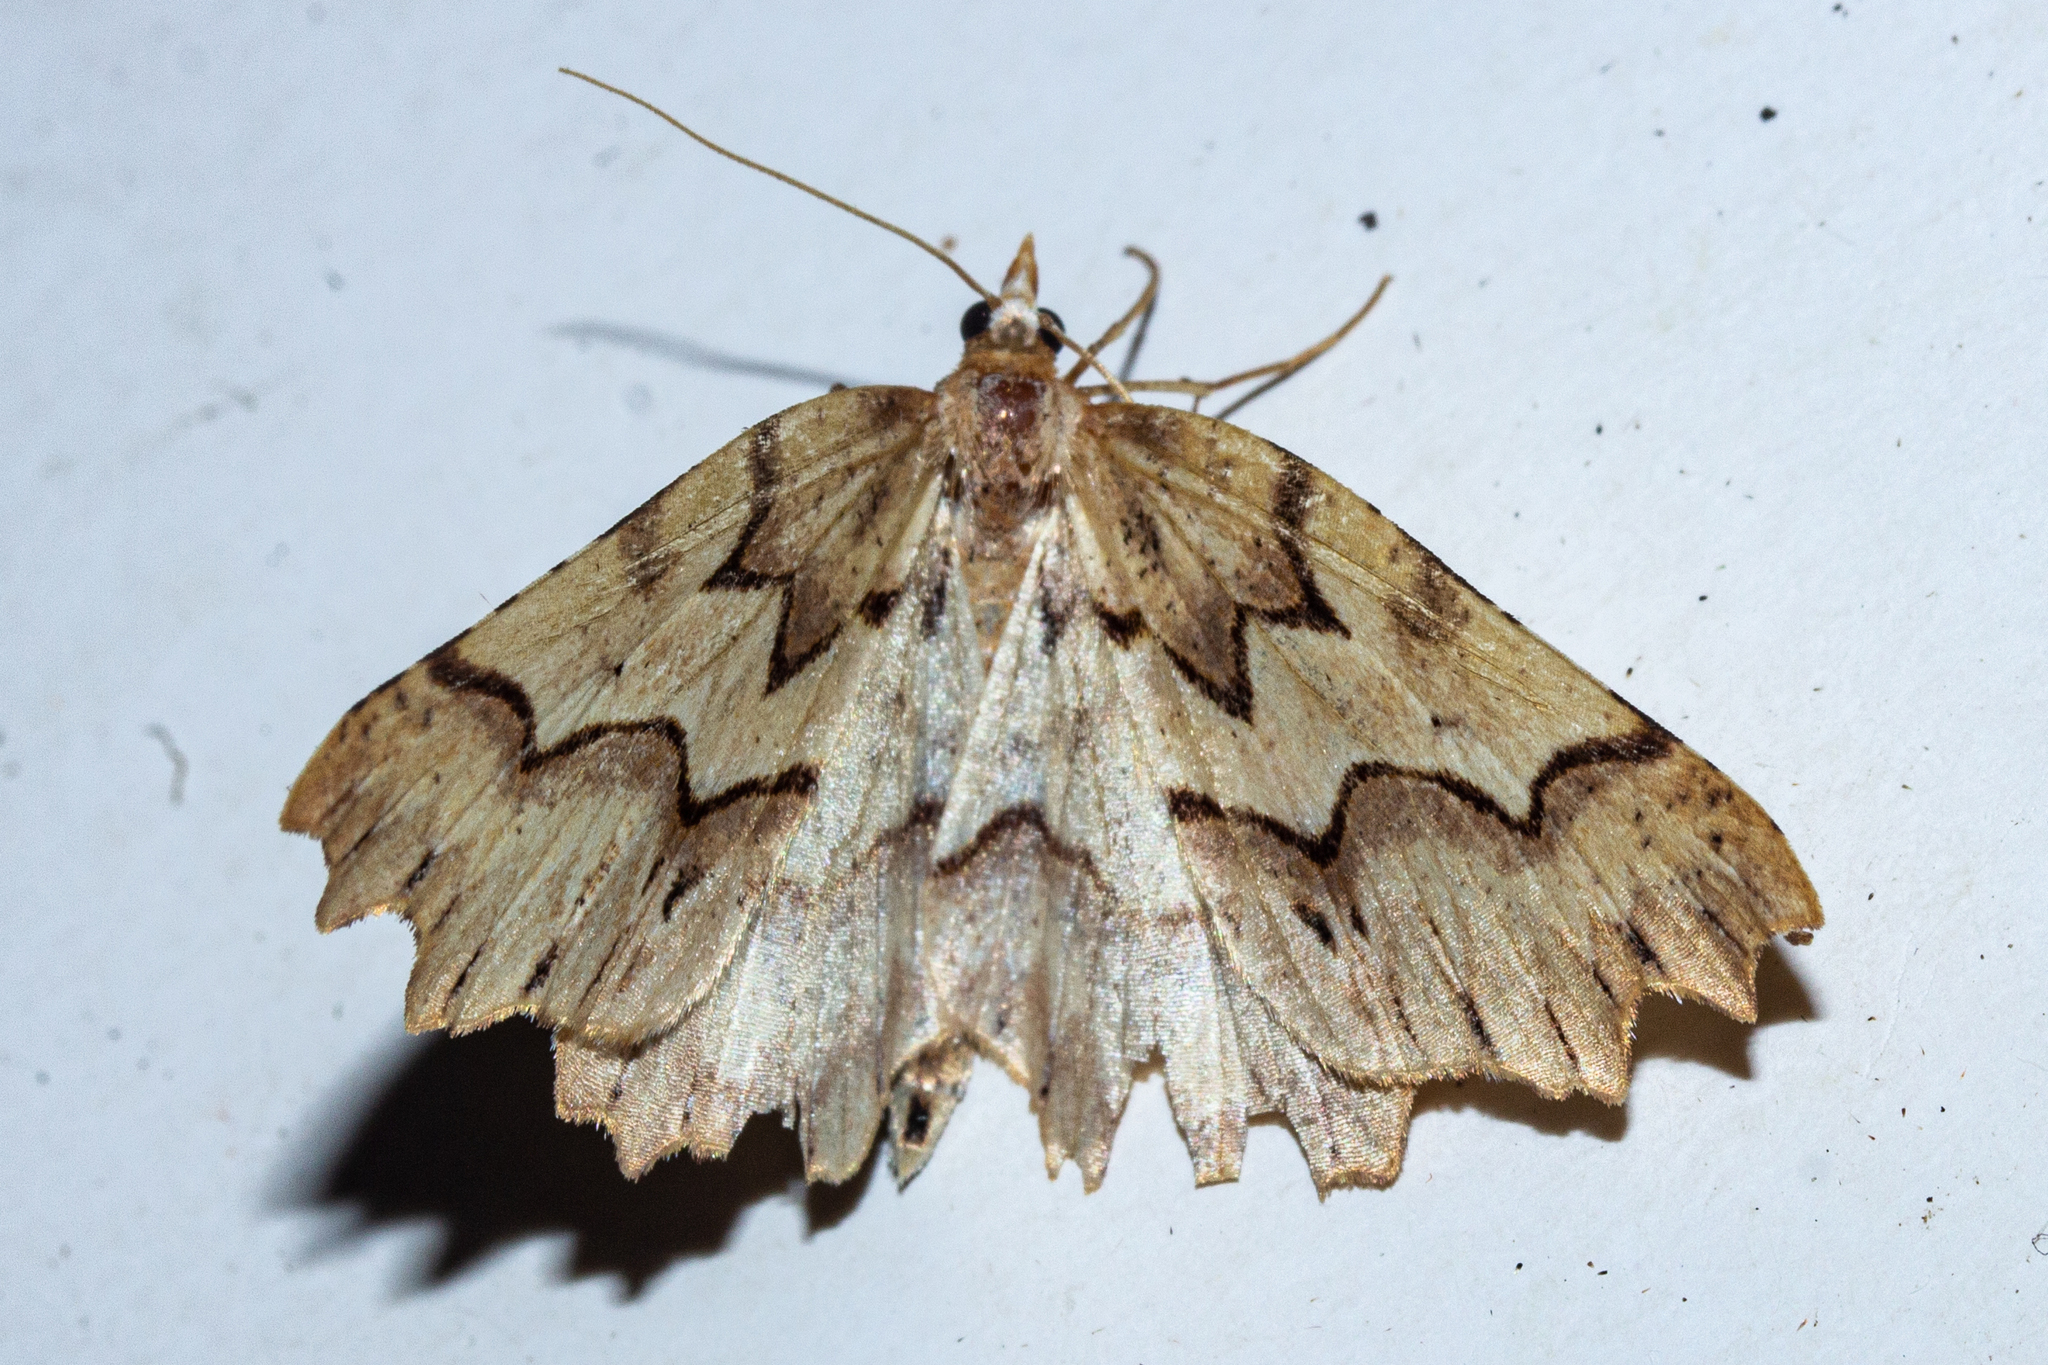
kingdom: Animalia
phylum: Arthropoda
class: Insecta
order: Lepidoptera
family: Geometridae
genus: Ischalis
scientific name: Ischalis fortinata
